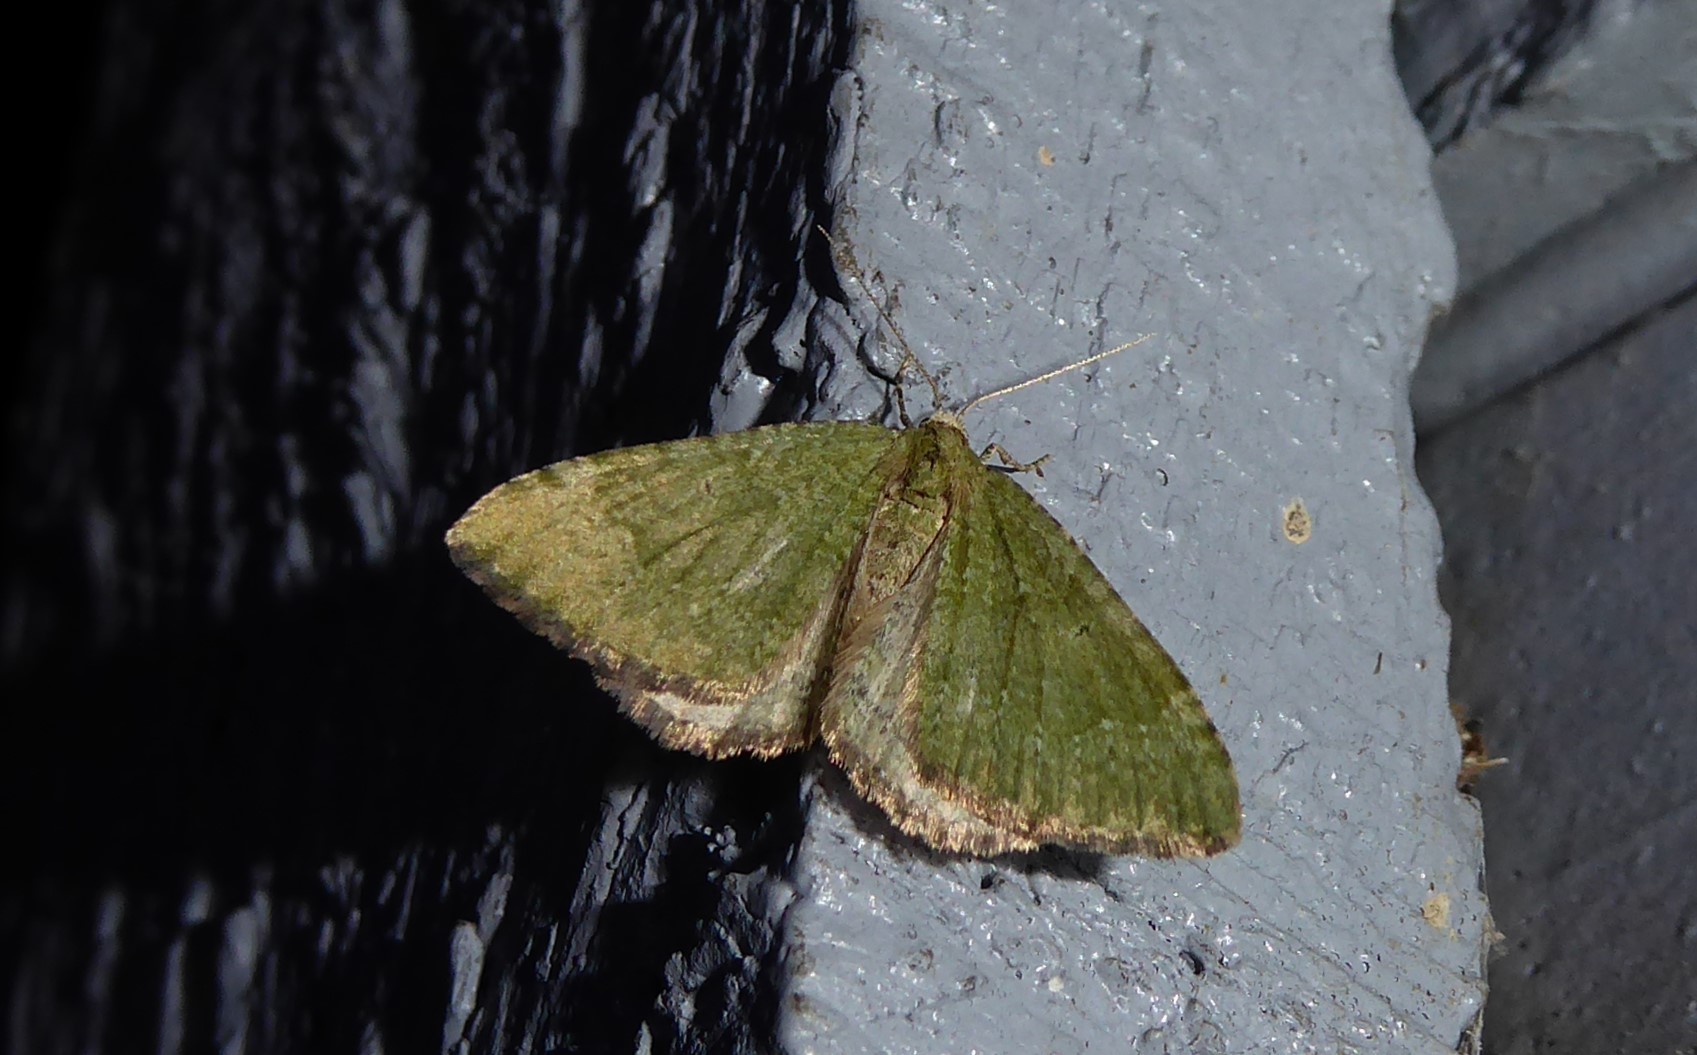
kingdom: Animalia
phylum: Arthropoda
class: Insecta
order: Lepidoptera
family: Geometridae
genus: Epyaxa
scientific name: Epyaxa rosearia
